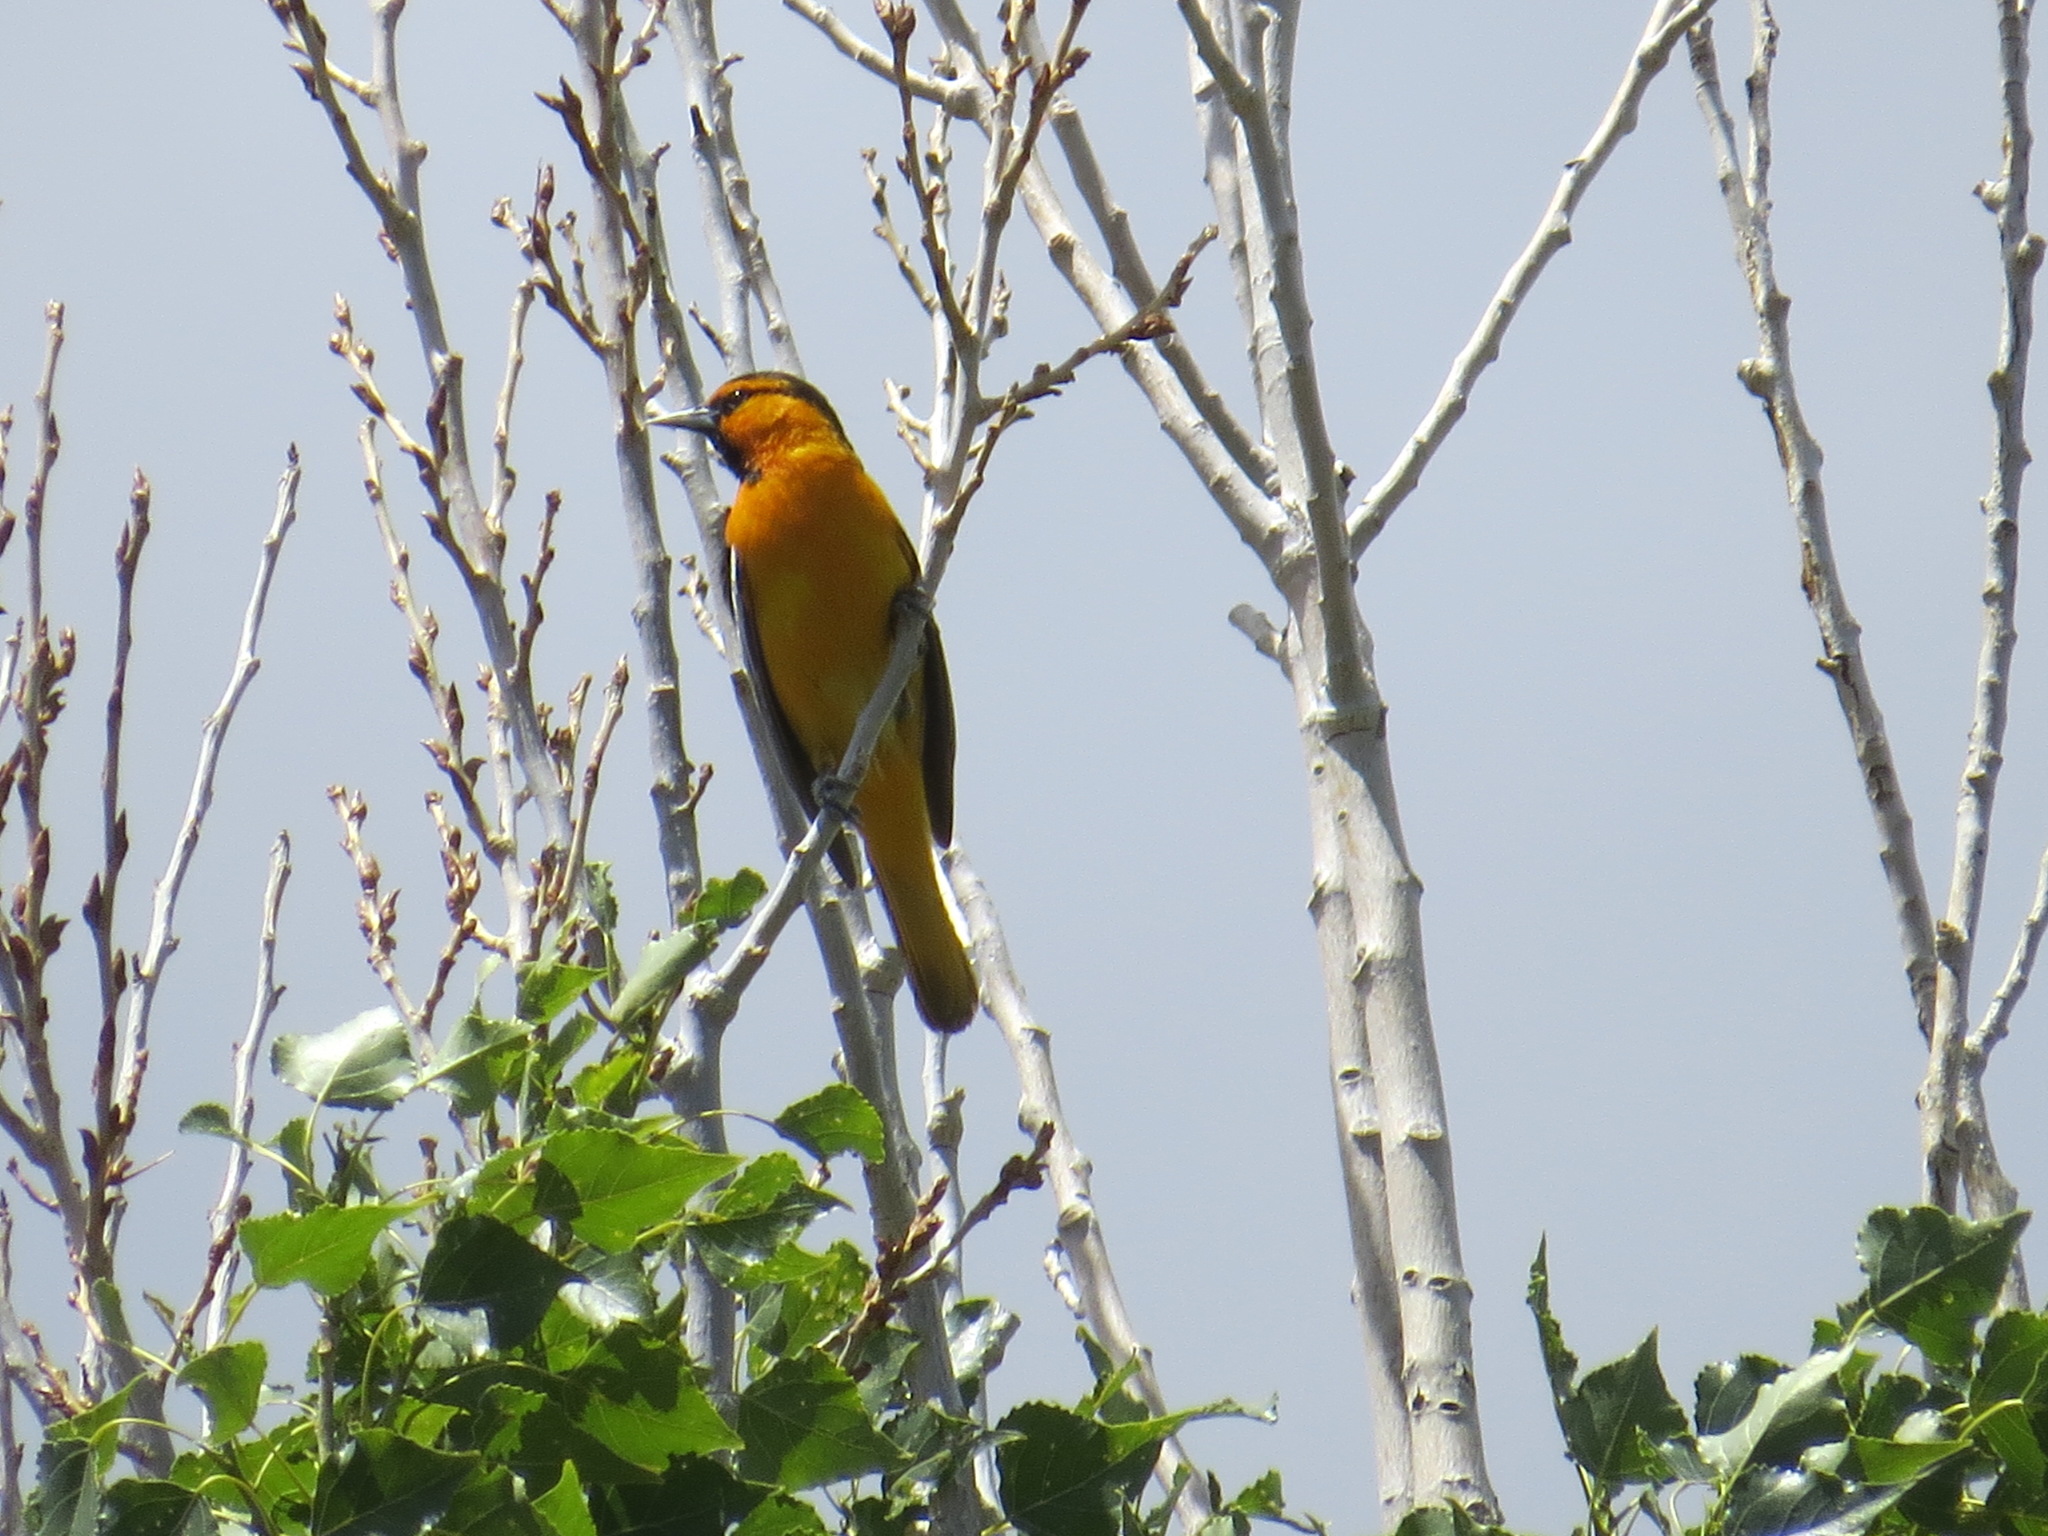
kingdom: Animalia
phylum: Chordata
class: Aves
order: Passeriformes
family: Icteridae
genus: Icterus
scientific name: Icterus bullockii
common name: Bullock's oriole
